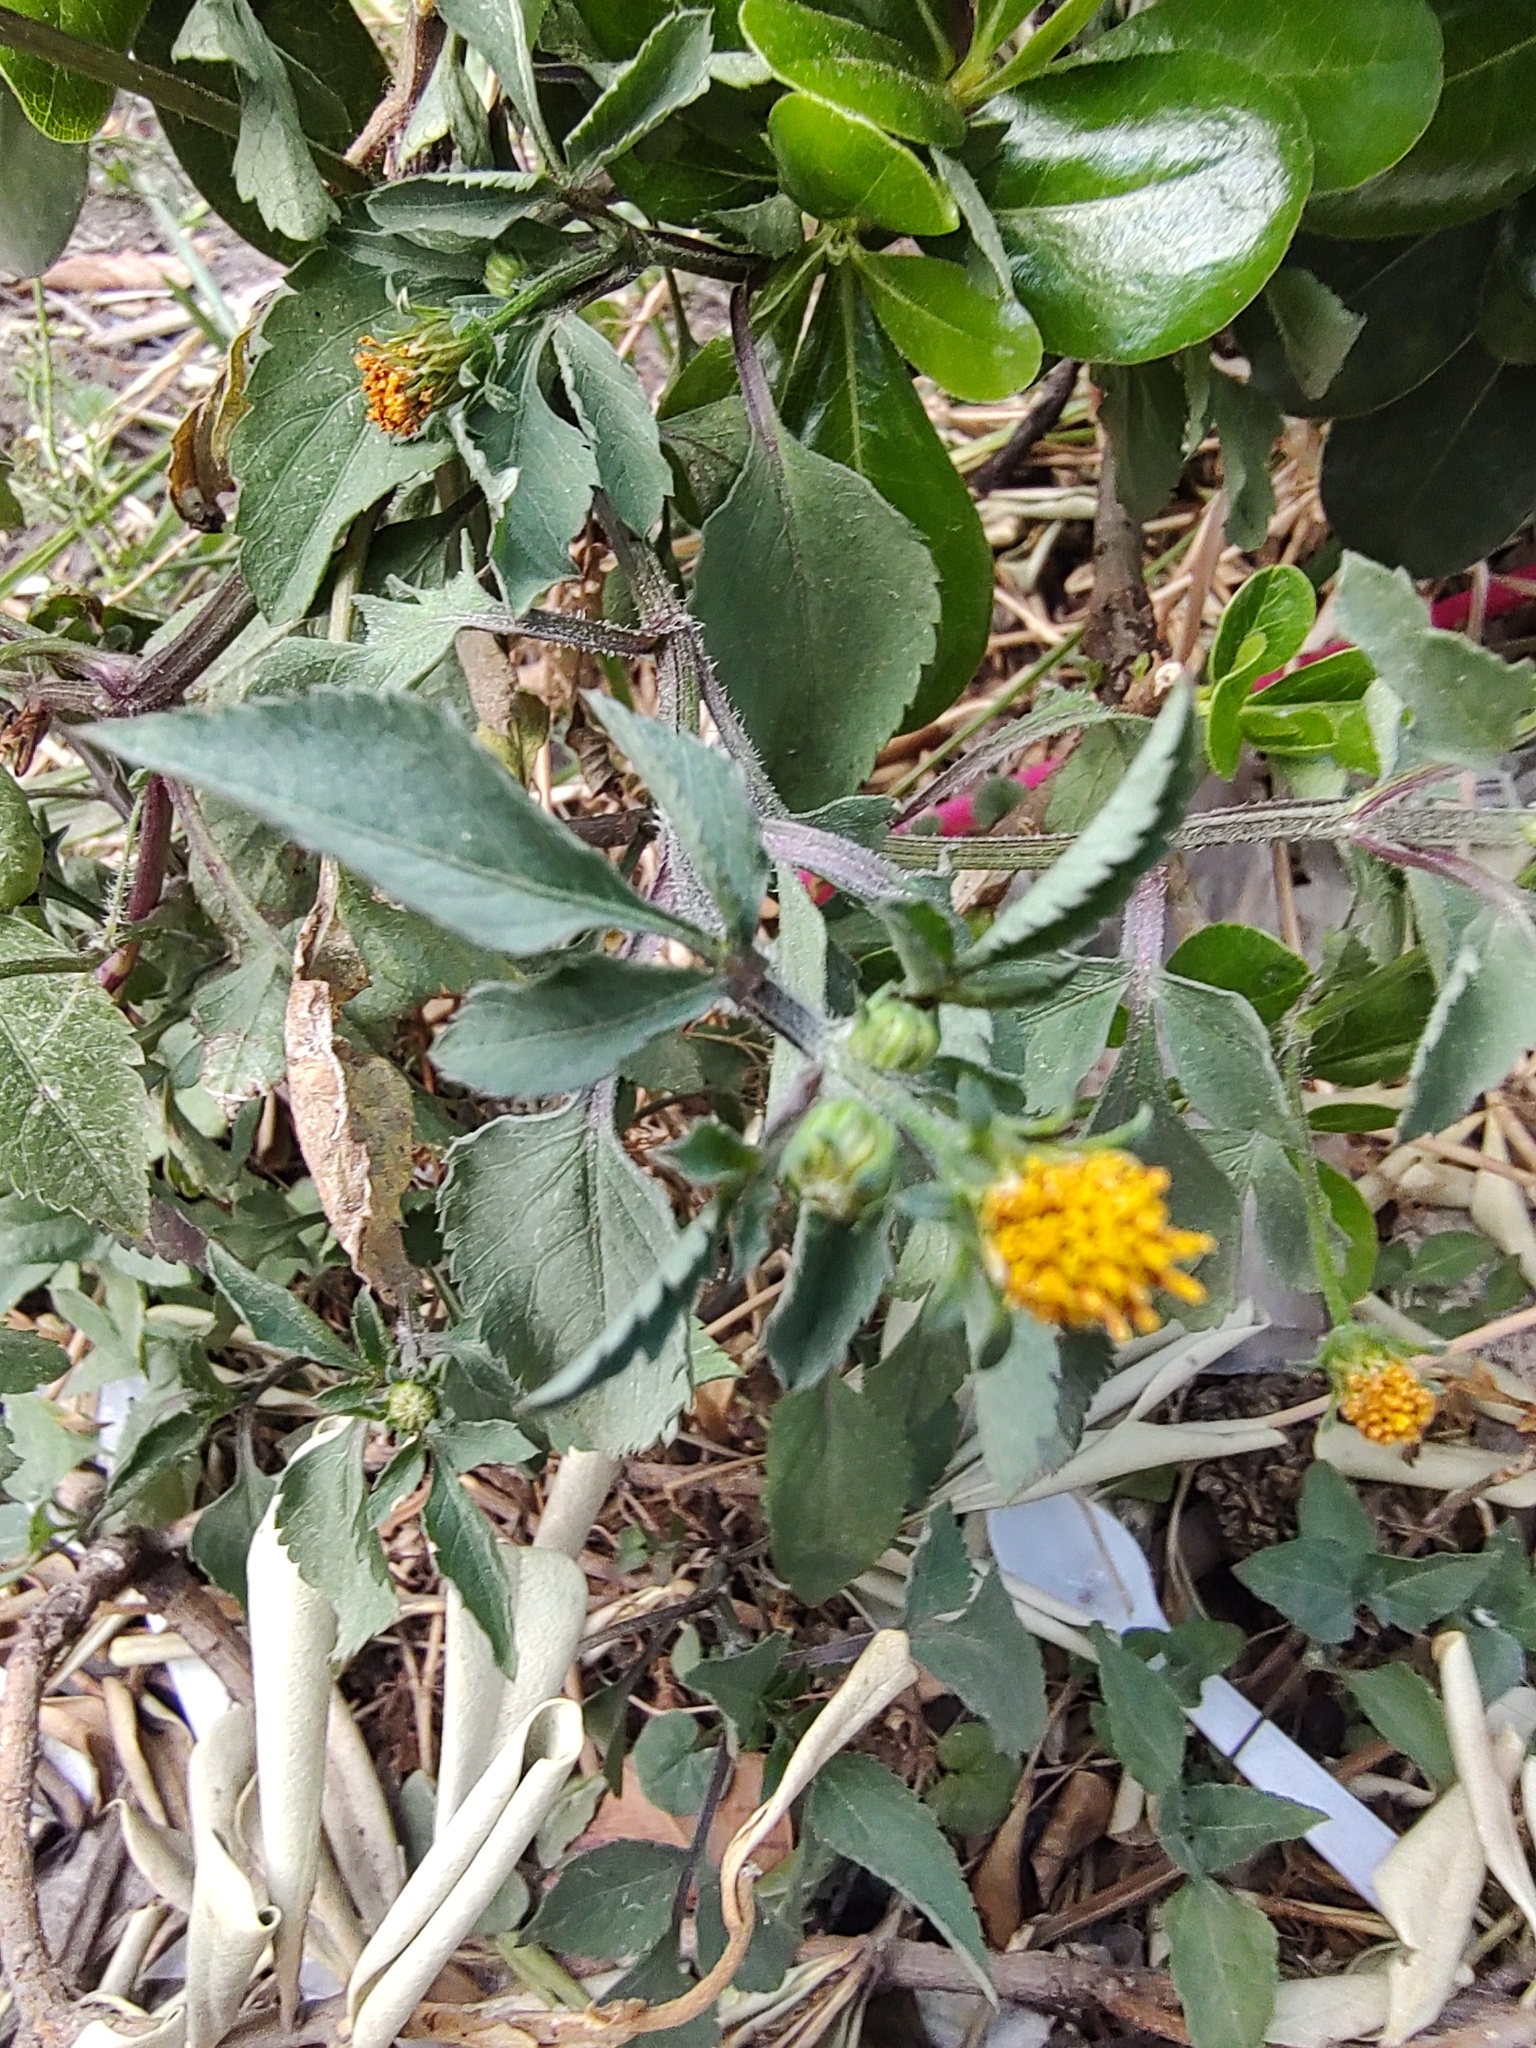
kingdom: Plantae
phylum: Tracheophyta
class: Magnoliopsida
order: Asterales
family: Asteraceae
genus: Bidens
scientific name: Bidens pilosa
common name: Black-jack
